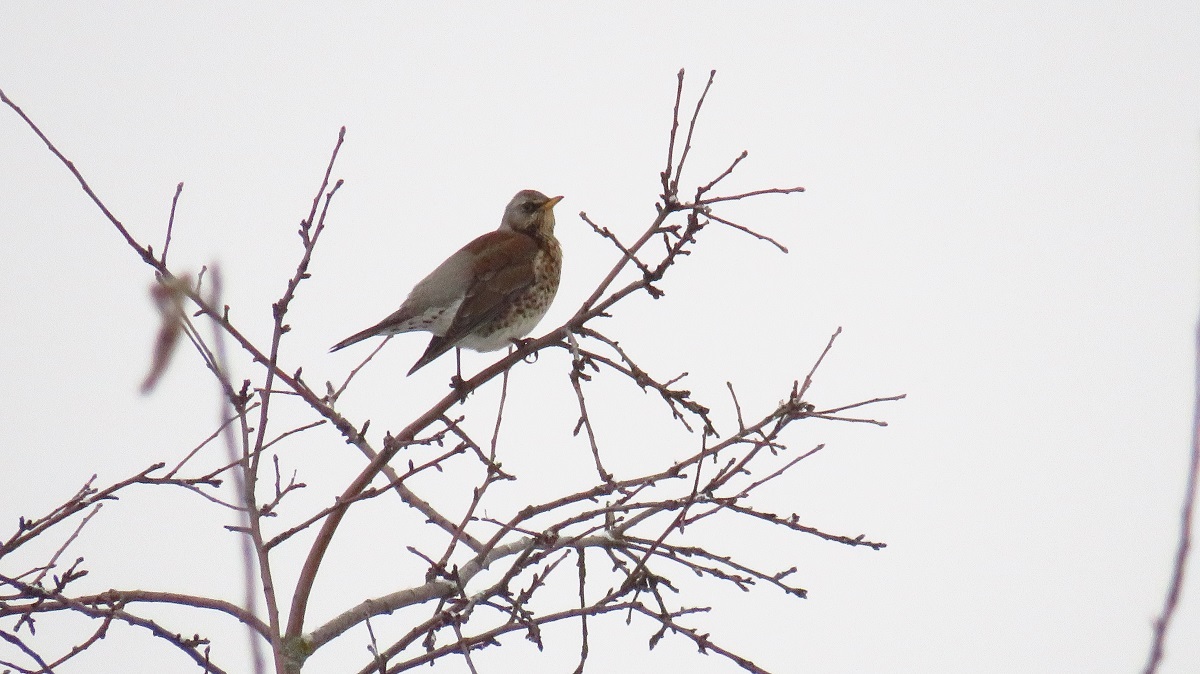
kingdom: Animalia
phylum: Chordata
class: Aves
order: Passeriformes
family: Turdidae
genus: Turdus
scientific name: Turdus pilaris
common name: Fieldfare
